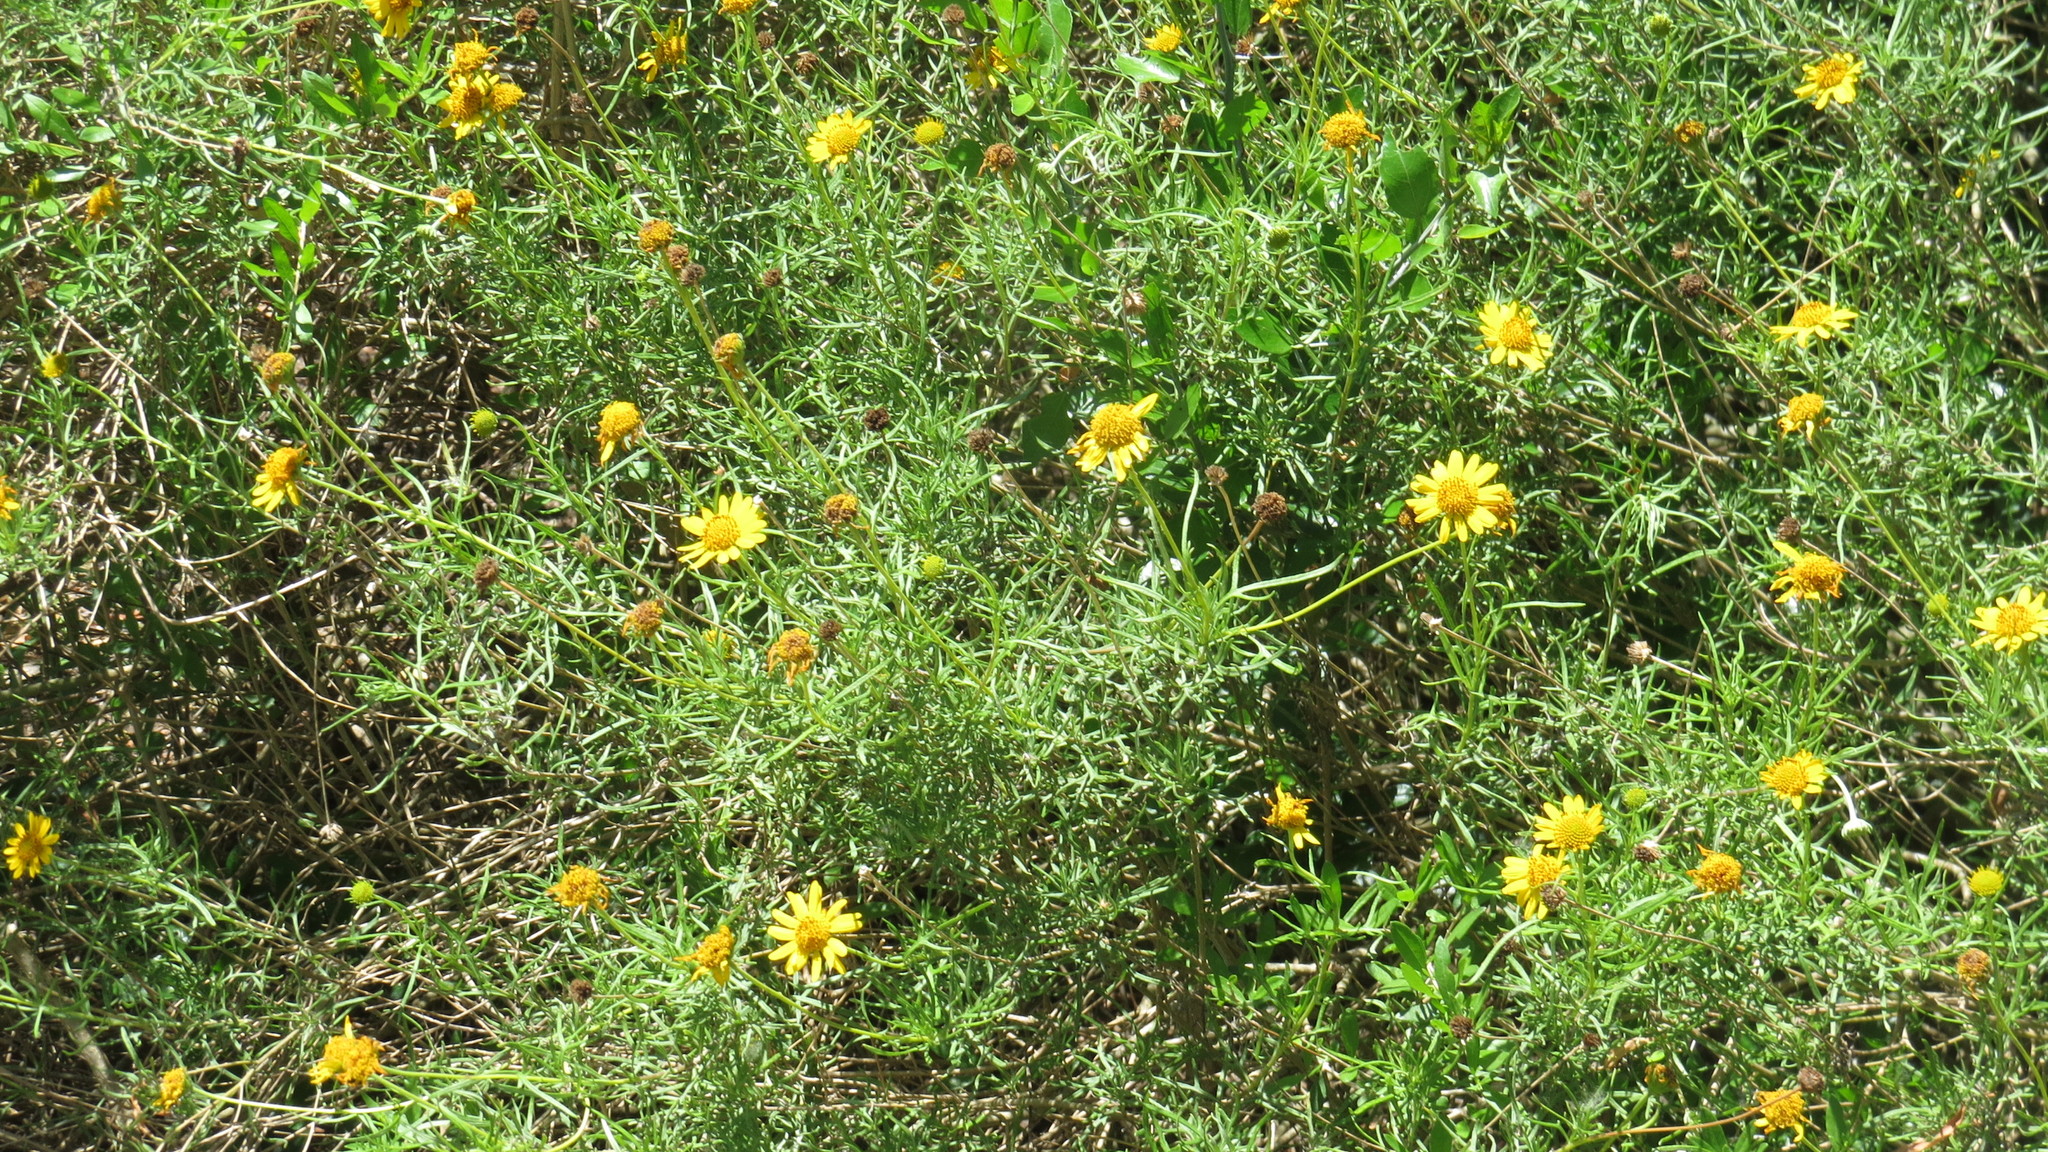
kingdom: Plantae
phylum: Tracheophyta
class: Magnoliopsida
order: Asterales
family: Asteraceae
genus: Sidneya
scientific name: Sidneya tenuifolia
